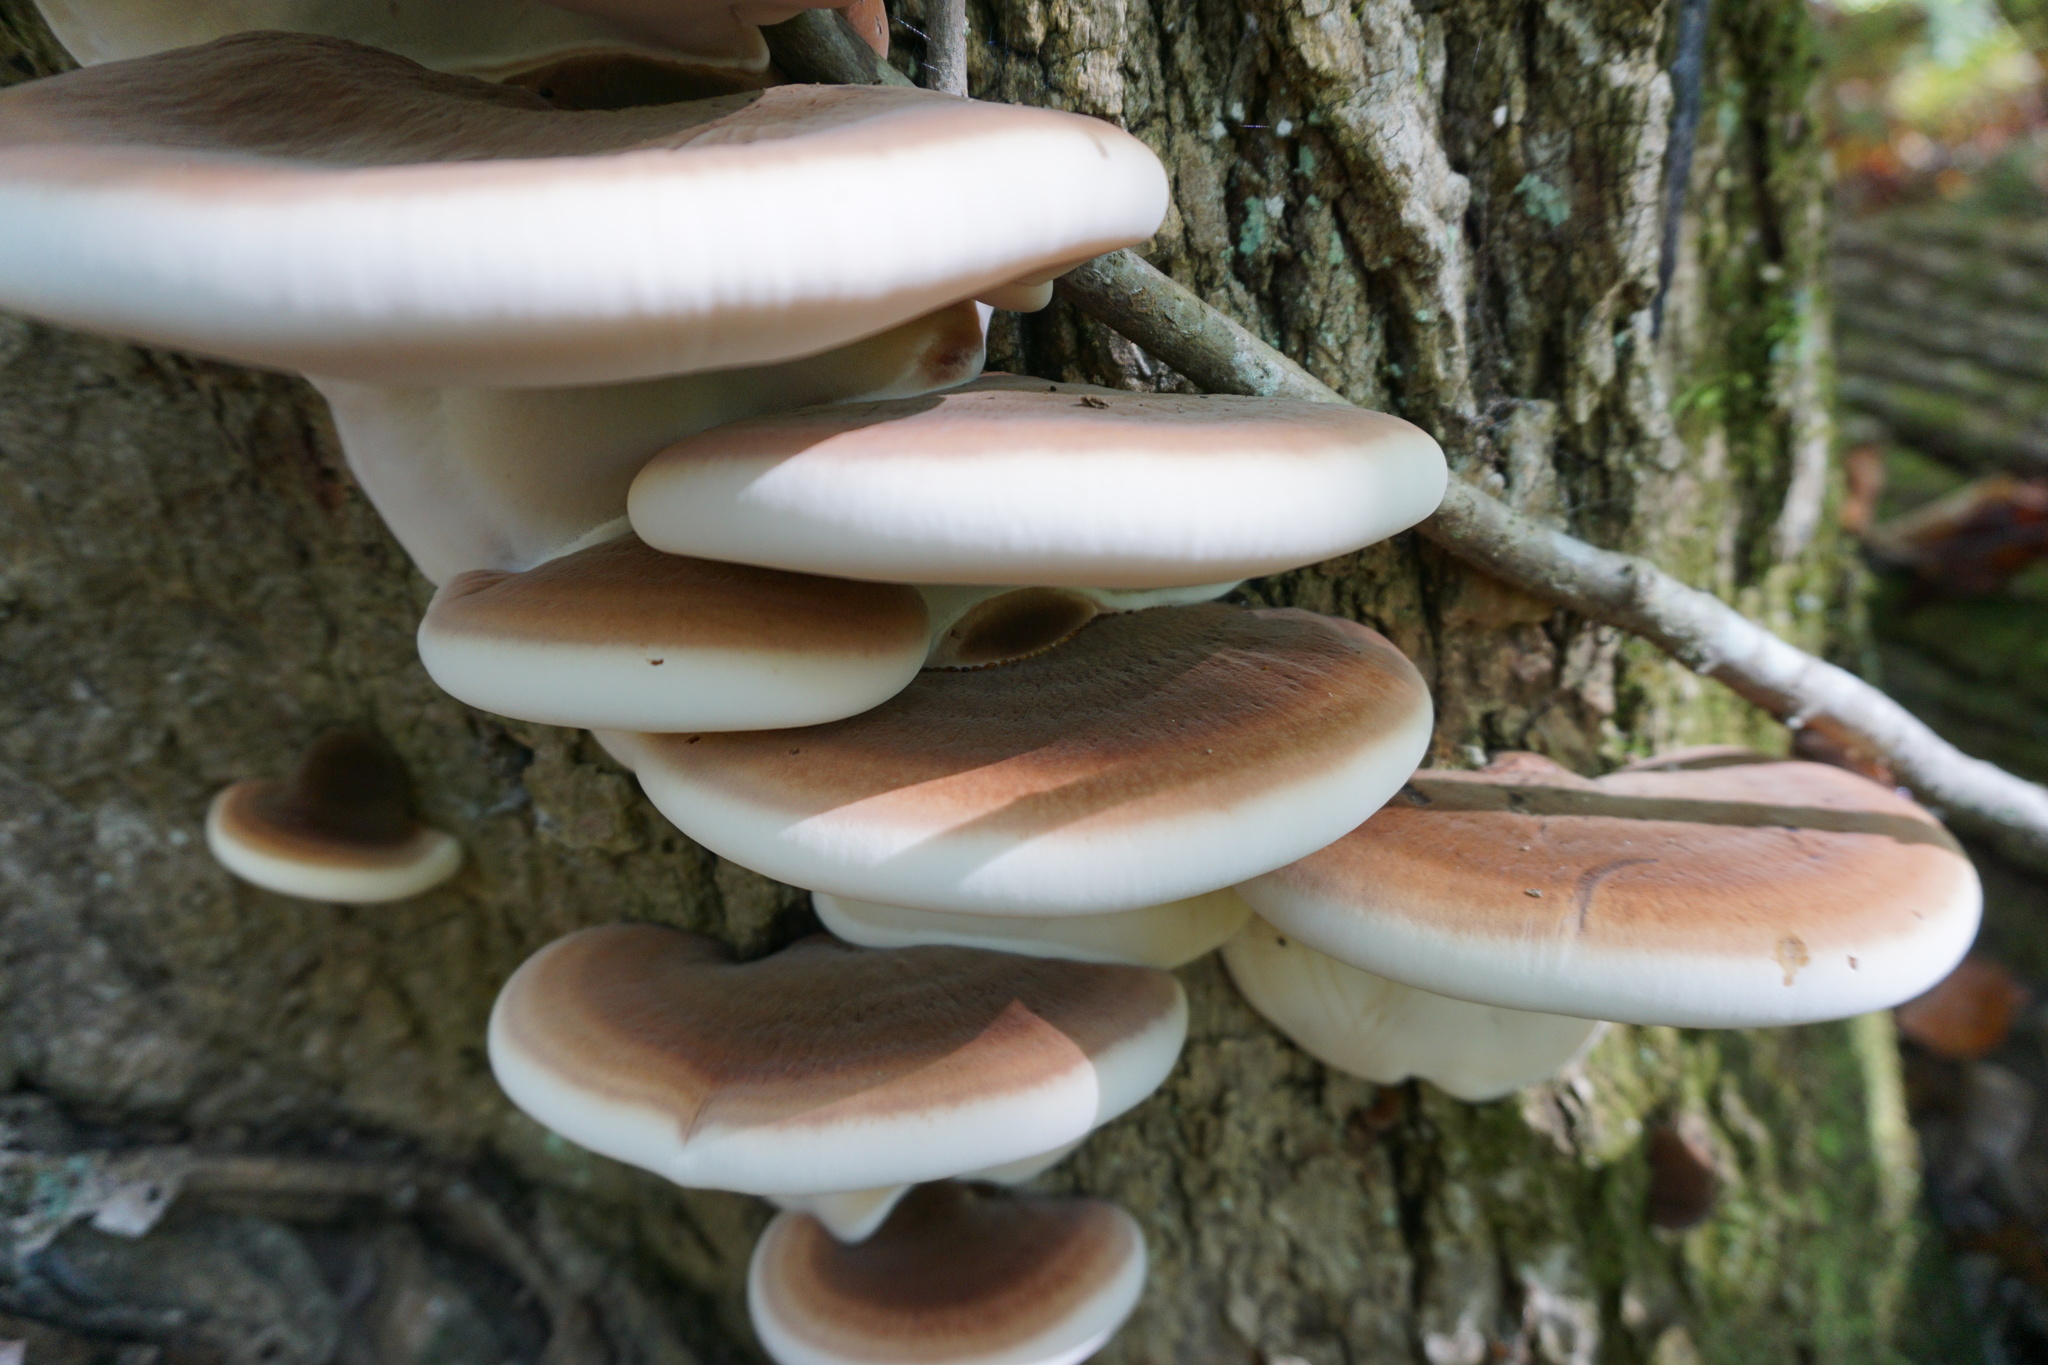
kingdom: Fungi
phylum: Basidiomycota
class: Agaricomycetes
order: Polyporales
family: Ischnodermataceae
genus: Ischnoderma
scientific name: Ischnoderma resinosum
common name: Resinous polypore
